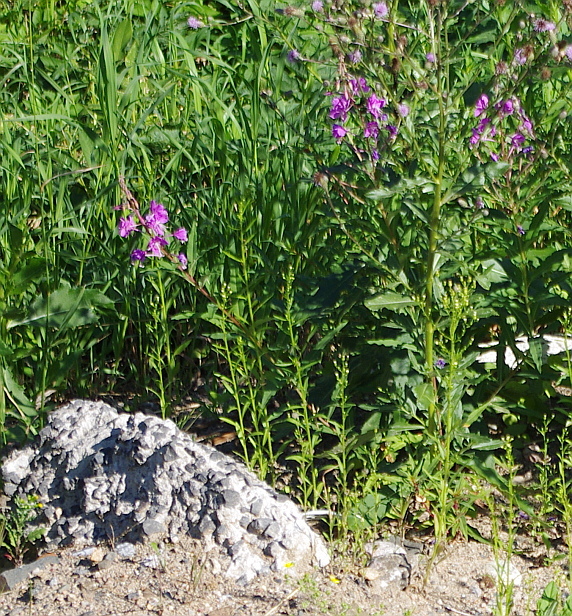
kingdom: Plantae
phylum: Tracheophyta
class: Magnoliopsida
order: Myrtales
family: Onagraceae
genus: Chamaenerion
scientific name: Chamaenerion angustifolium
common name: Fireweed
